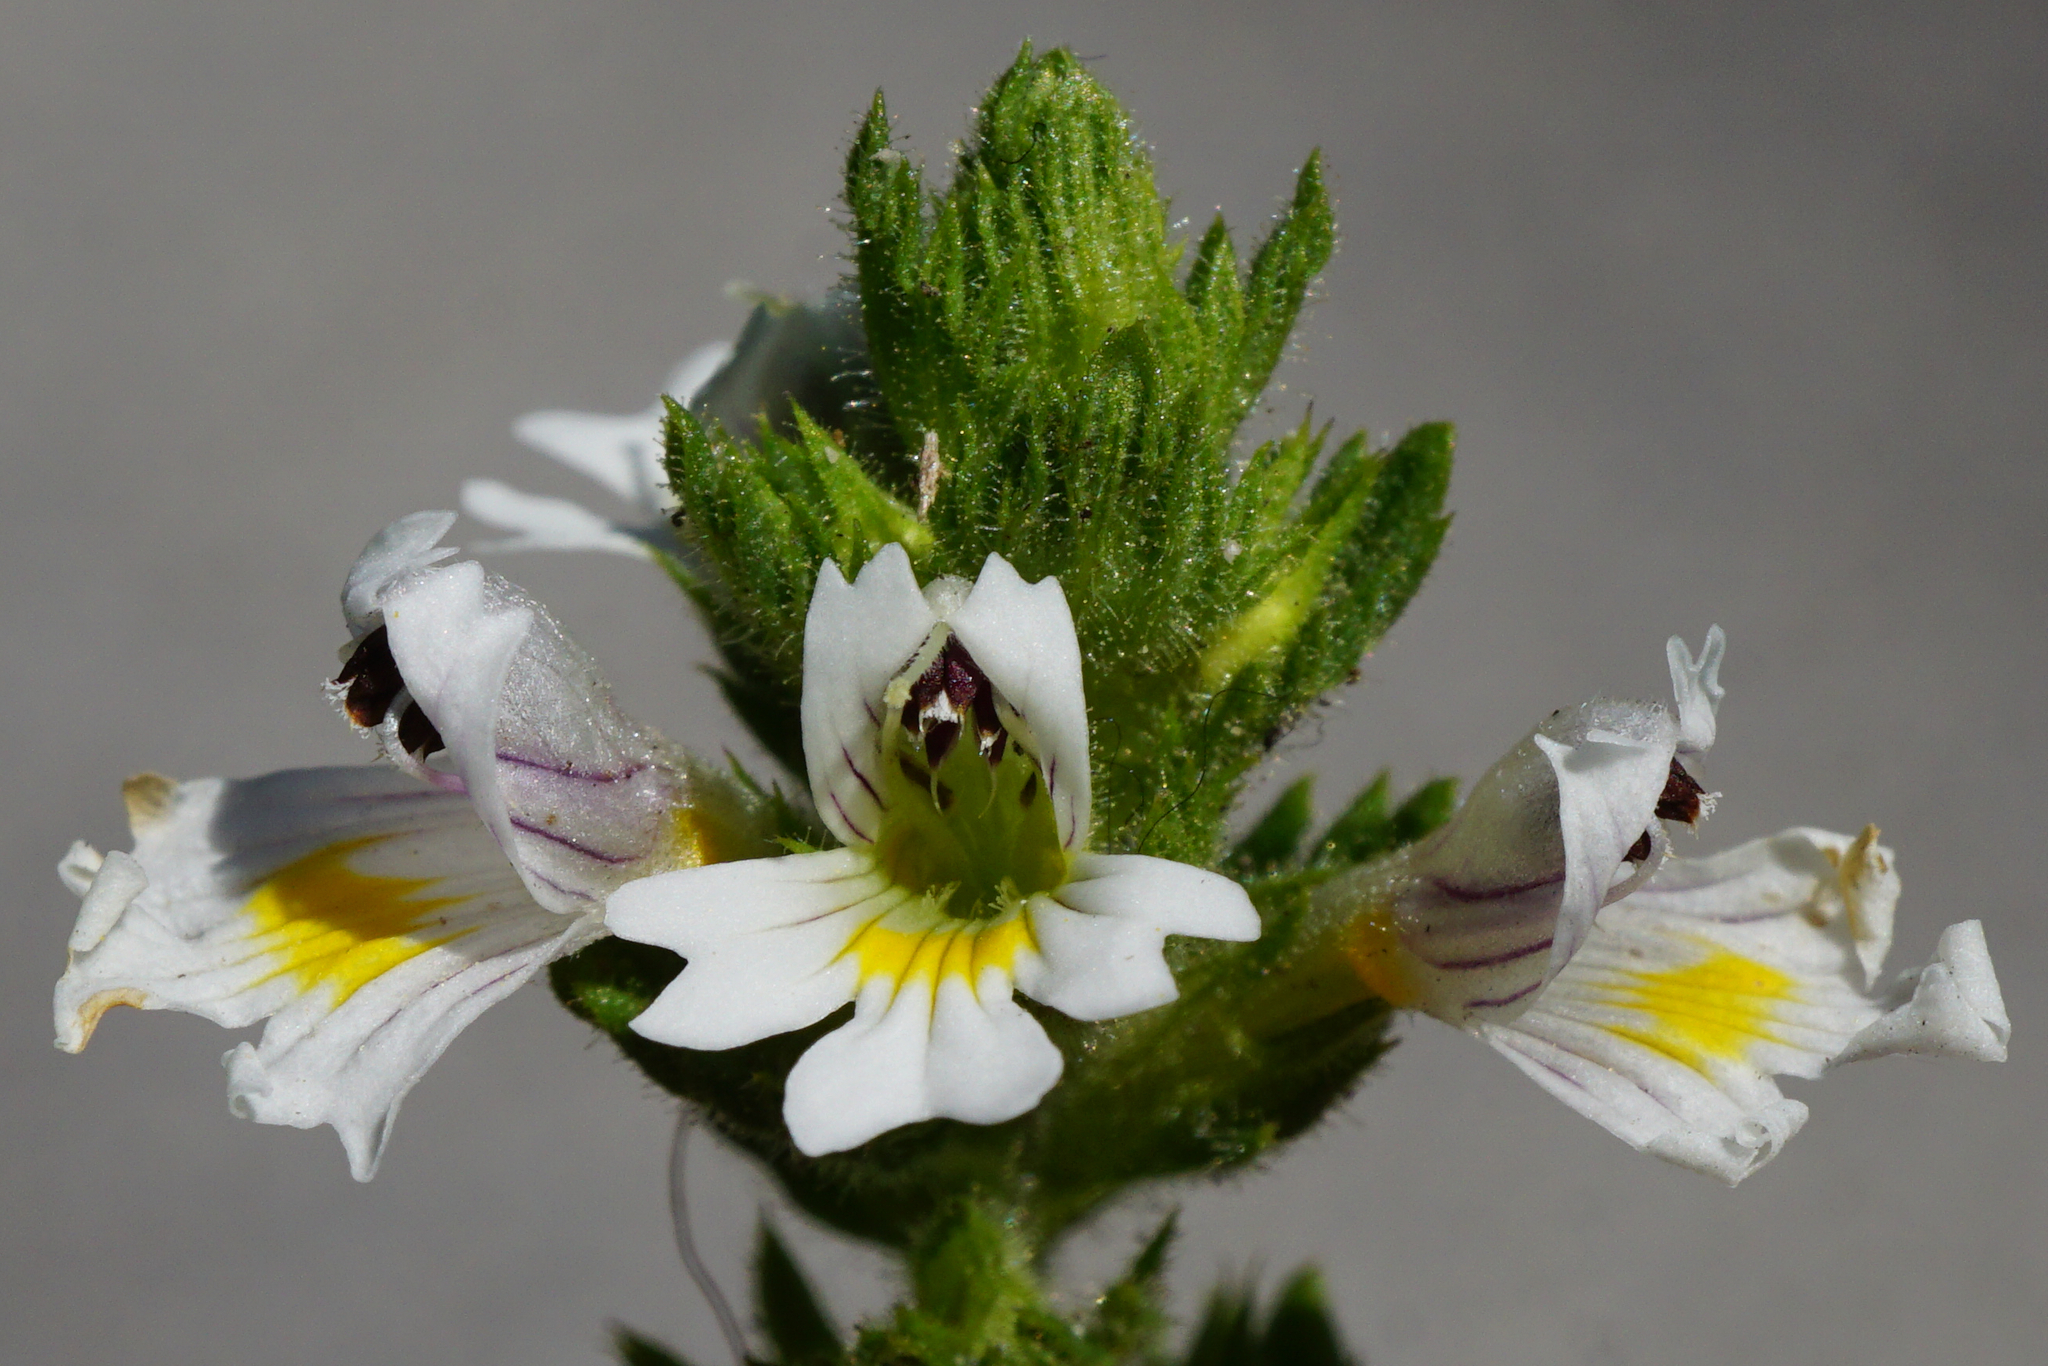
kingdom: Plantae
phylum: Tracheophyta
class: Magnoliopsida
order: Lamiales
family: Orobanchaceae
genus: Euphrasia
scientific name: Euphrasia officinalis
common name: Eyebright
